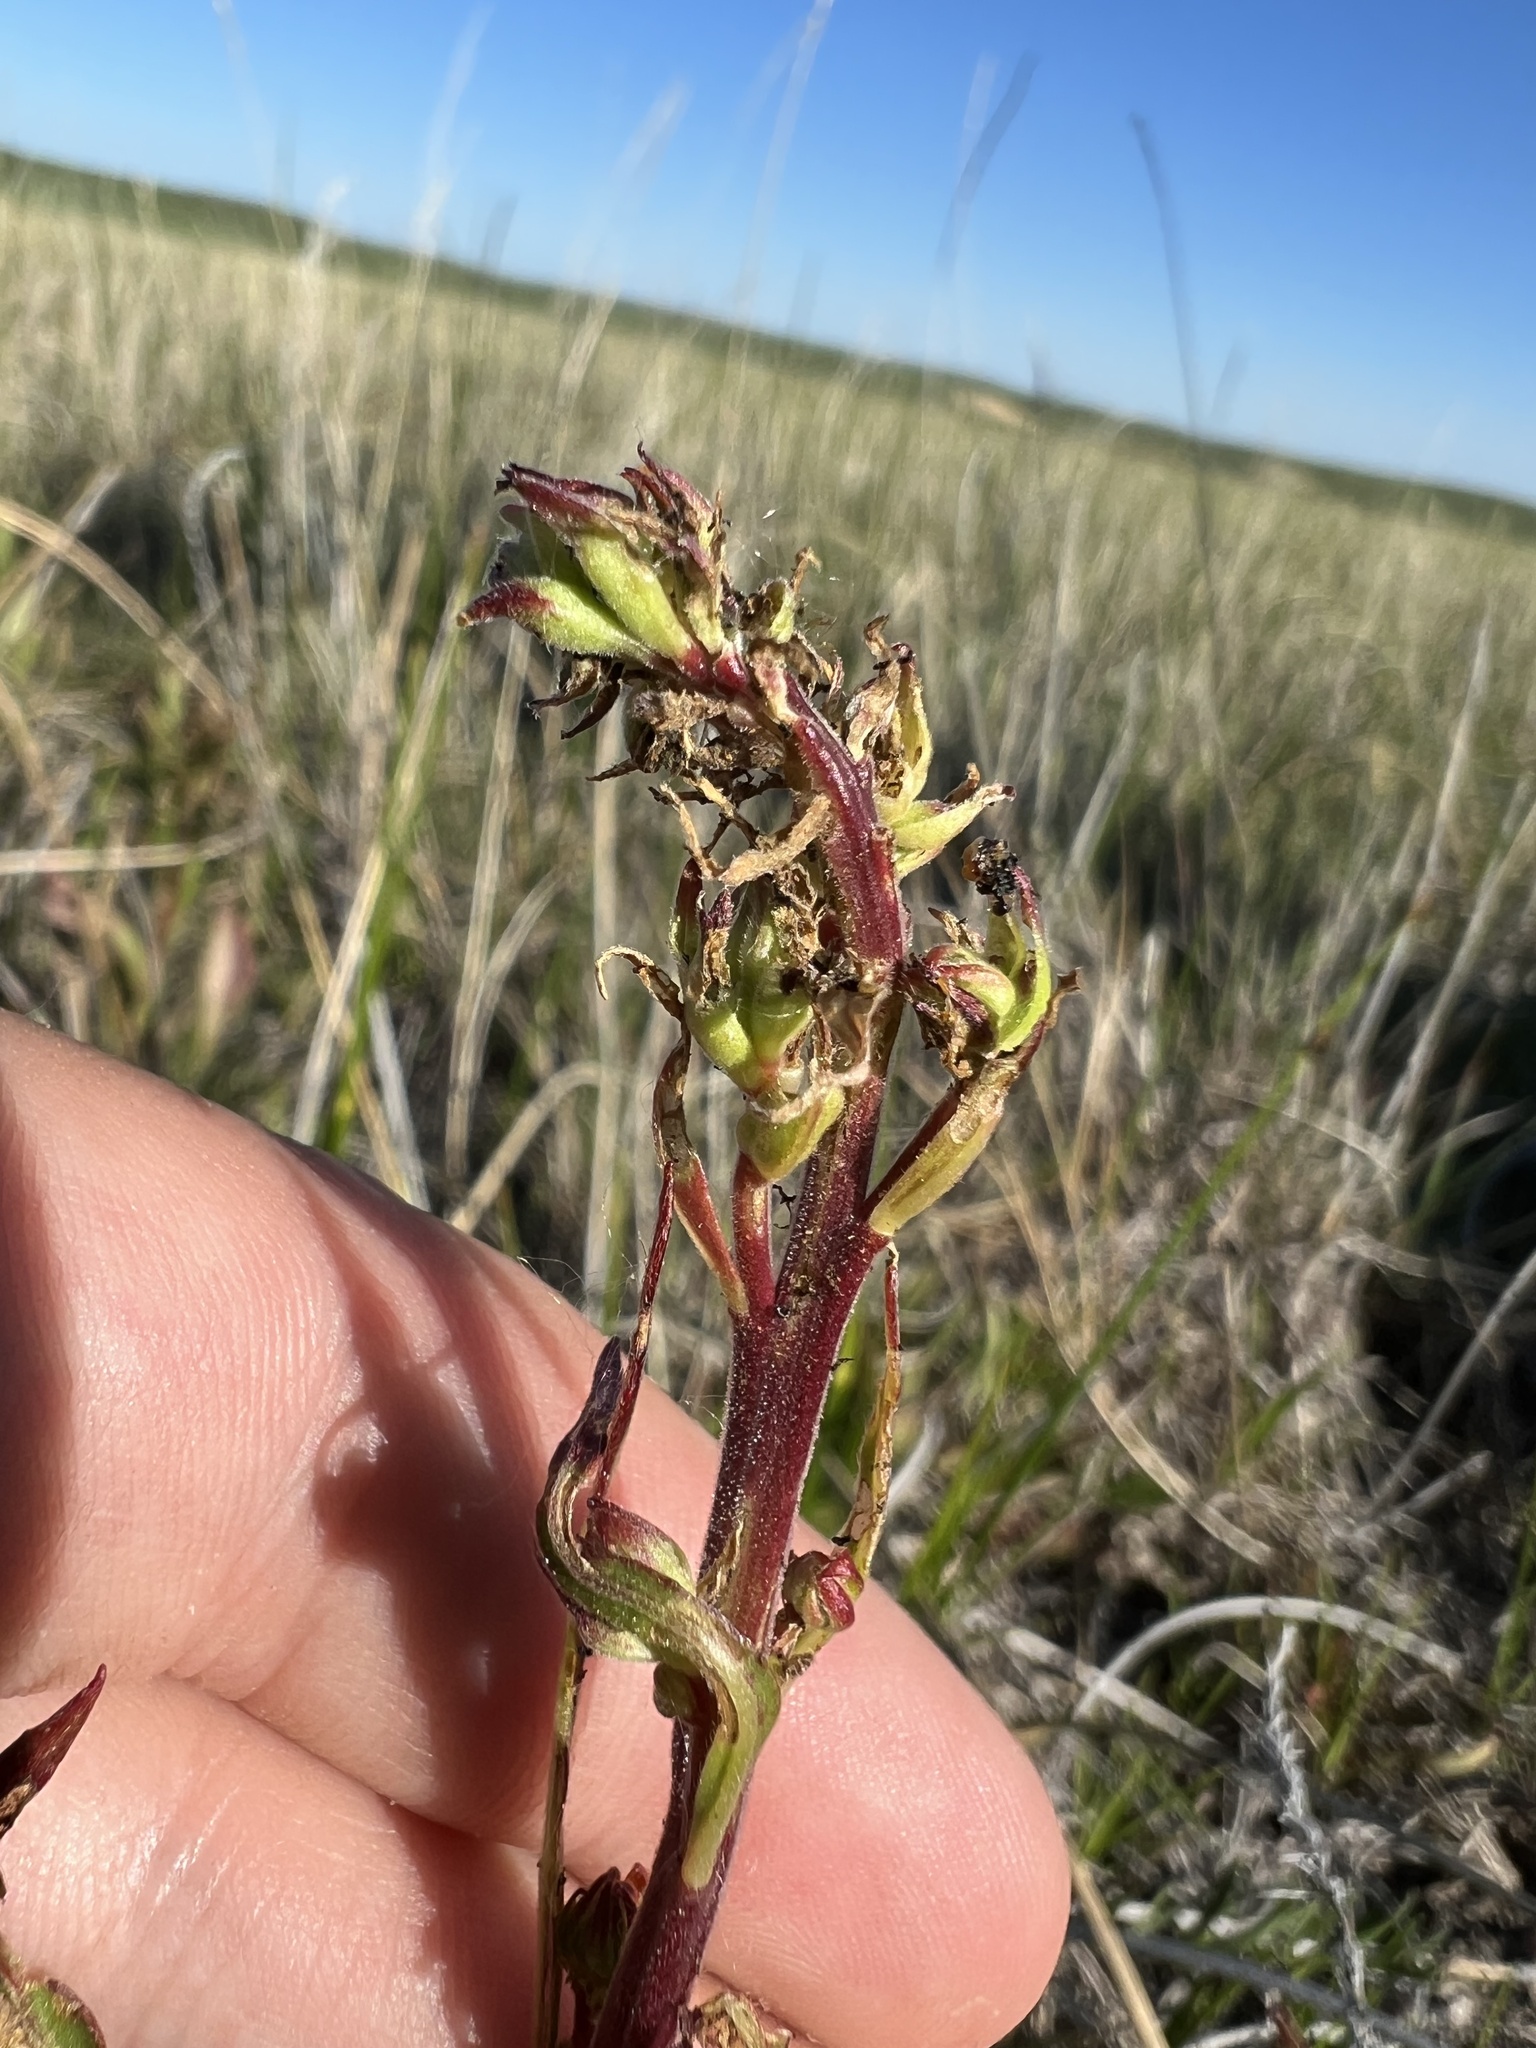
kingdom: Plantae
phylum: Tracheophyta
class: Magnoliopsida
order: Myrtales
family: Onagraceae
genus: Oenothera
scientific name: Oenothera coloradensis
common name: New mexico beeblossom
